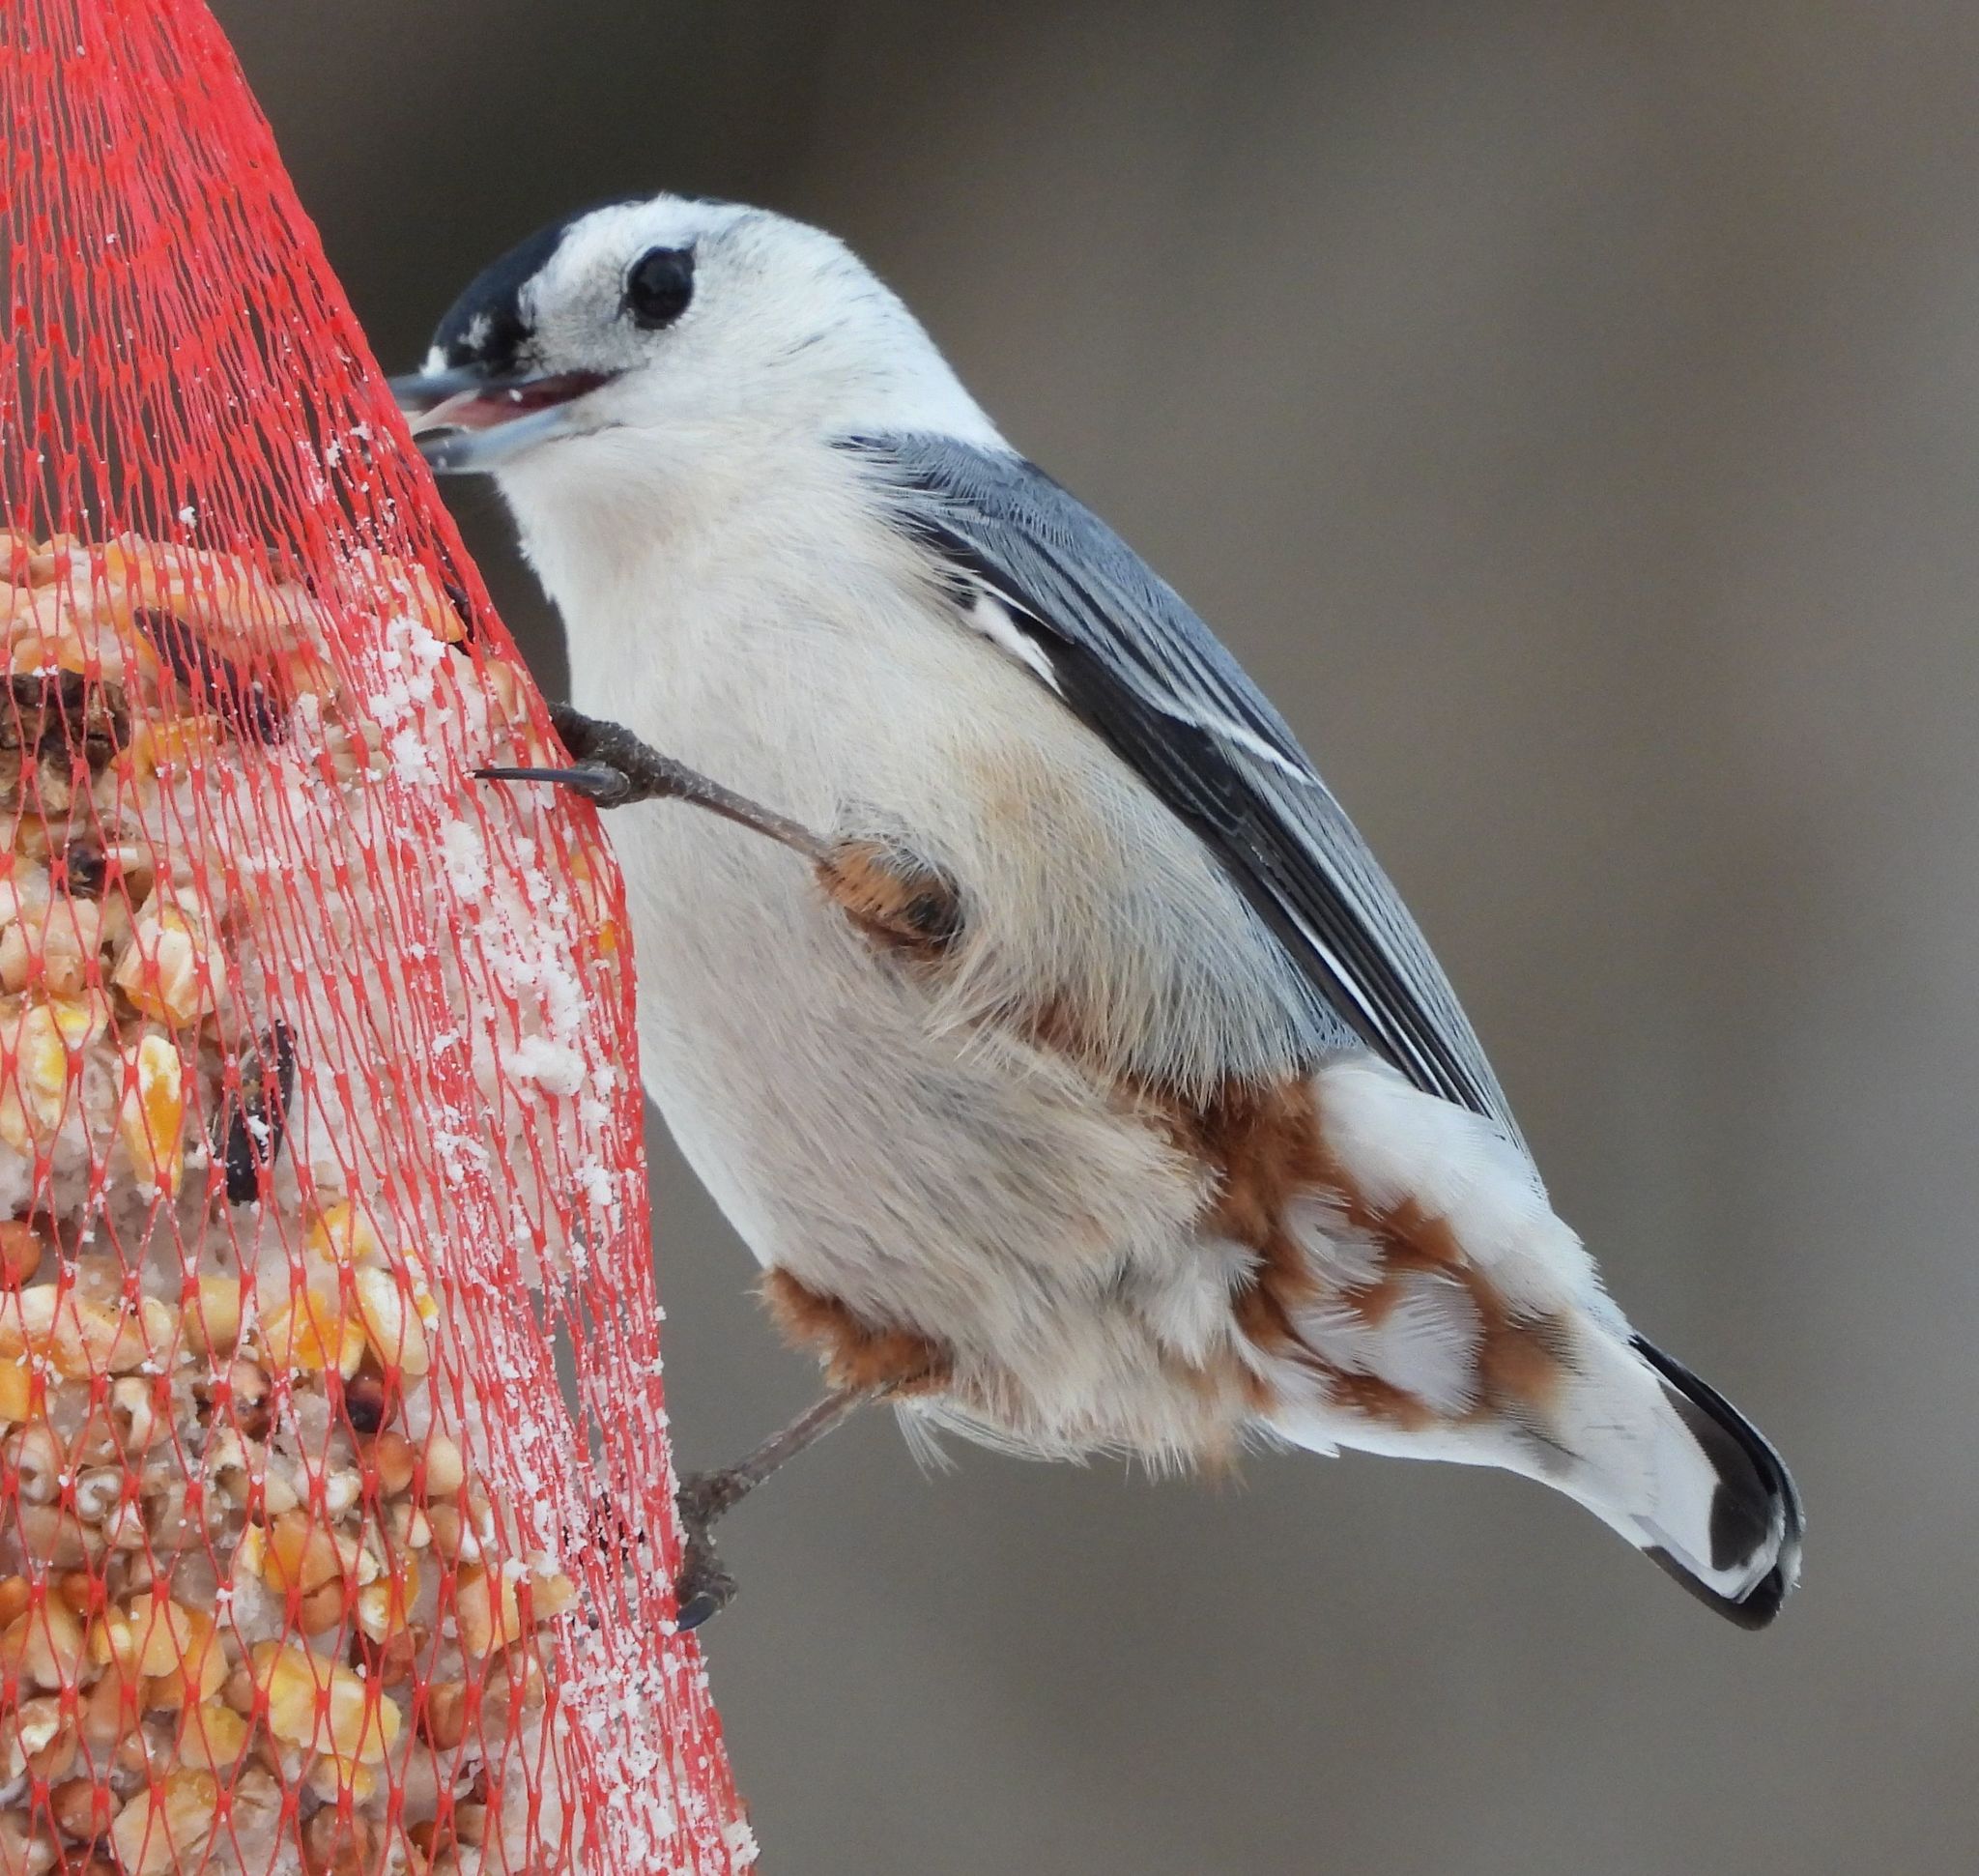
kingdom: Animalia
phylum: Chordata
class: Aves
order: Passeriformes
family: Sittidae
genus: Sitta
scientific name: Sitta carolinensis
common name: White-breasted nuthatch
